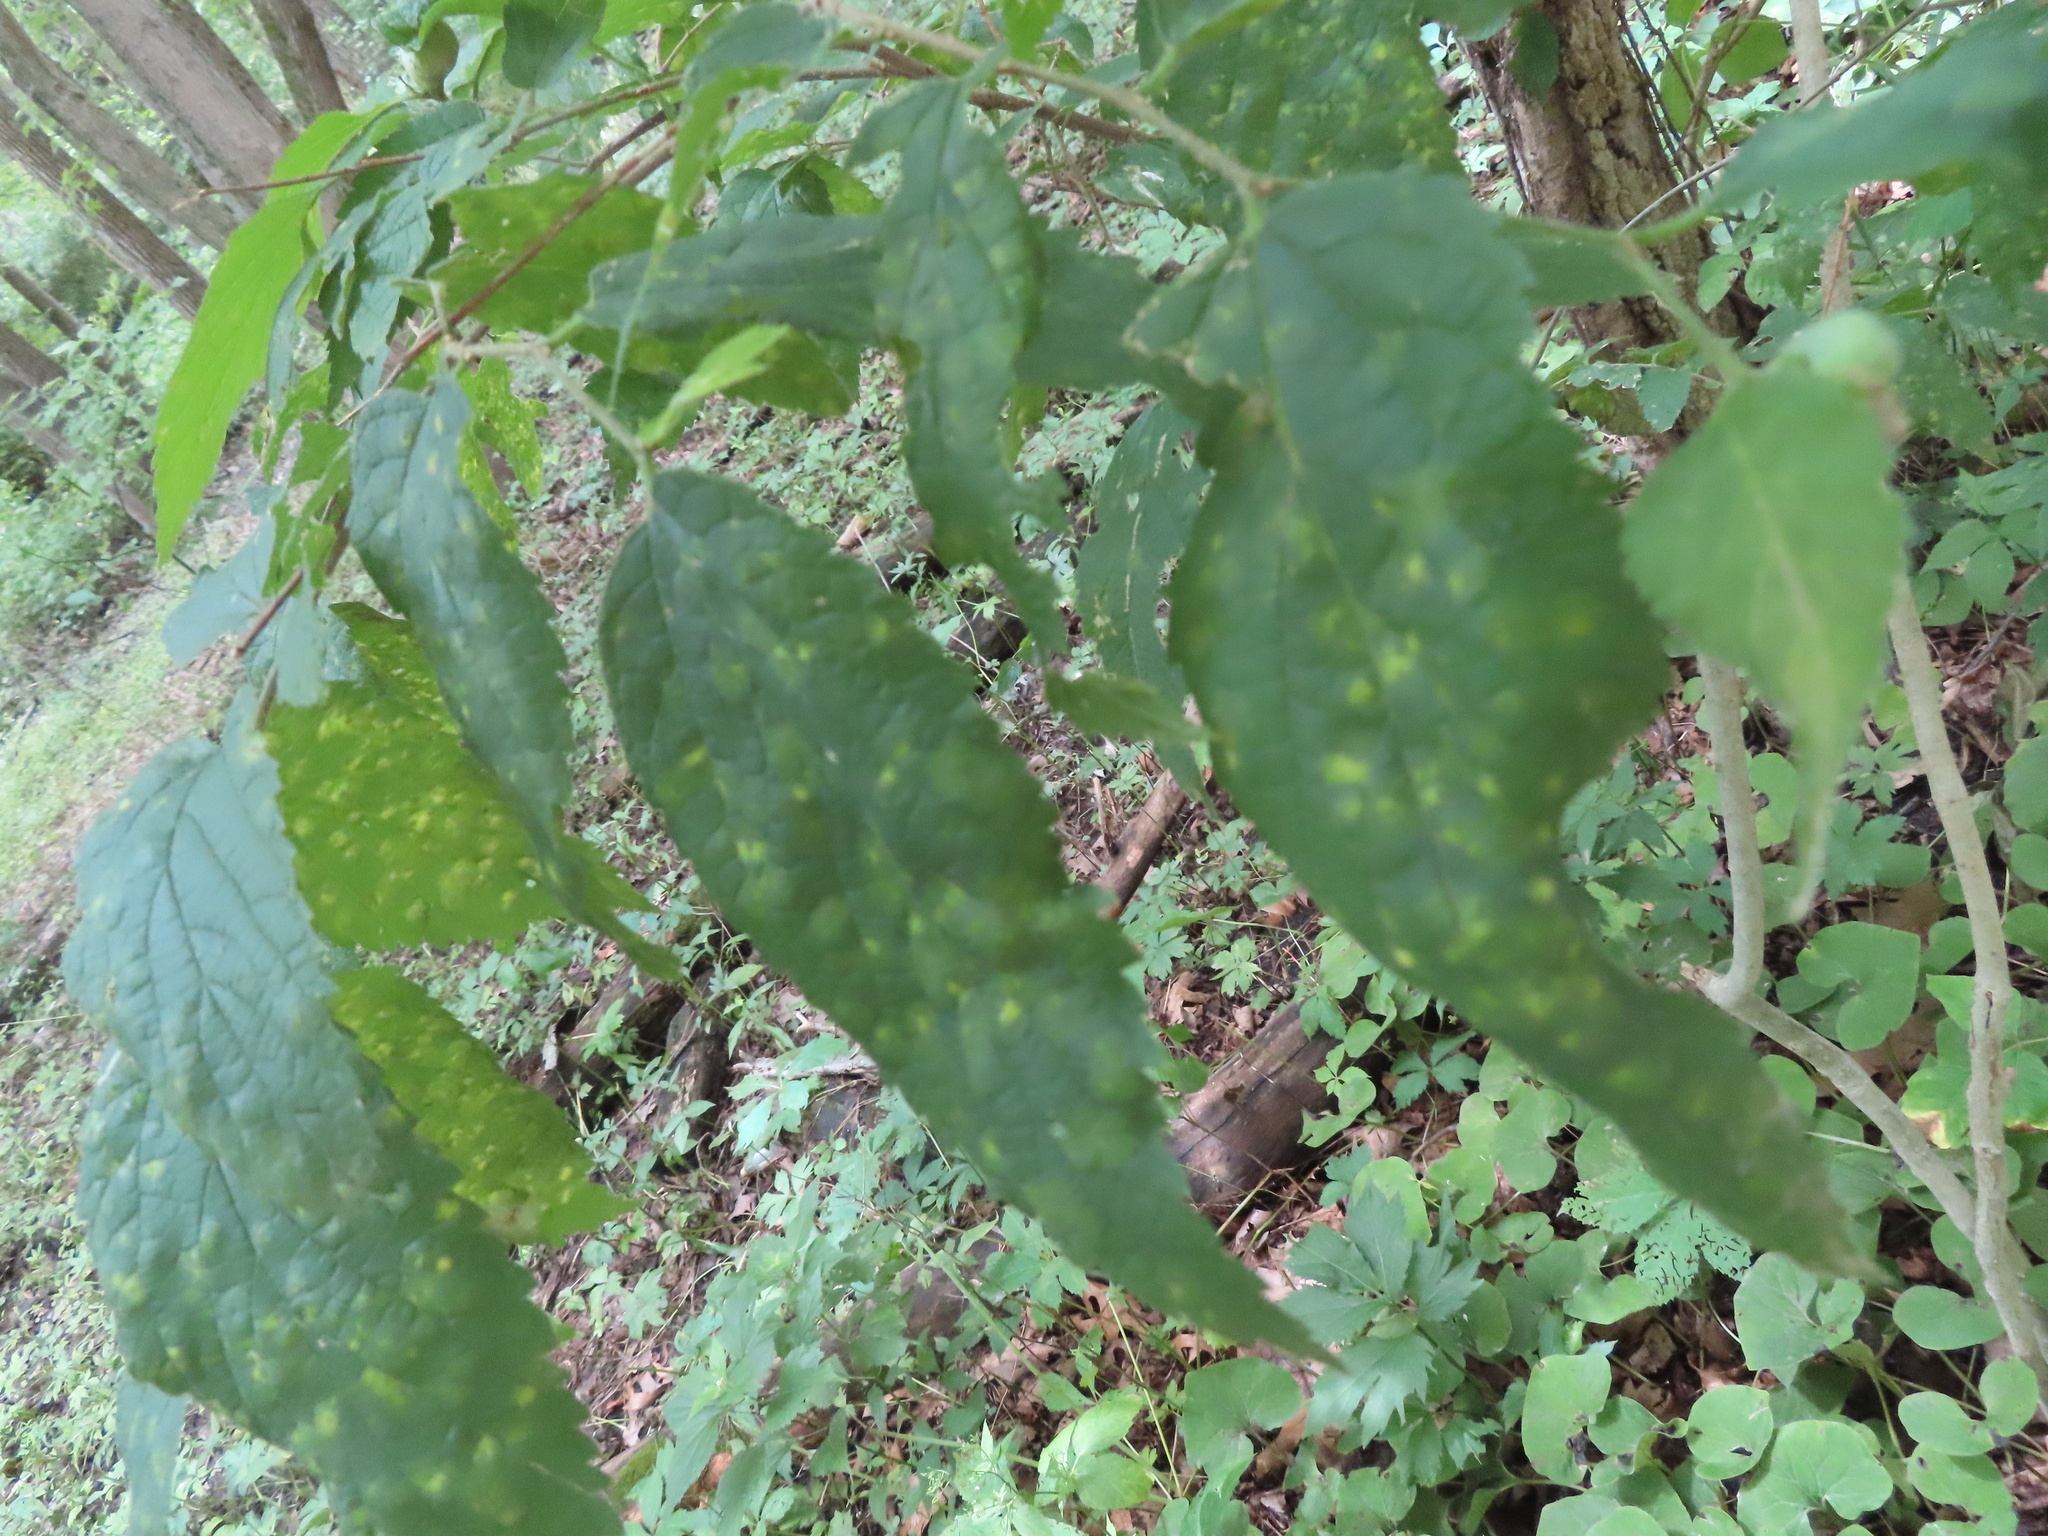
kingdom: Animalia
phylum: Arthropoda
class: Insecta
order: Hemiptera
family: Aphalaridae
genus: Pachypsylla
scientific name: Pachypsylla celtidisvesicula
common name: Hackberry blister gall psyllid
